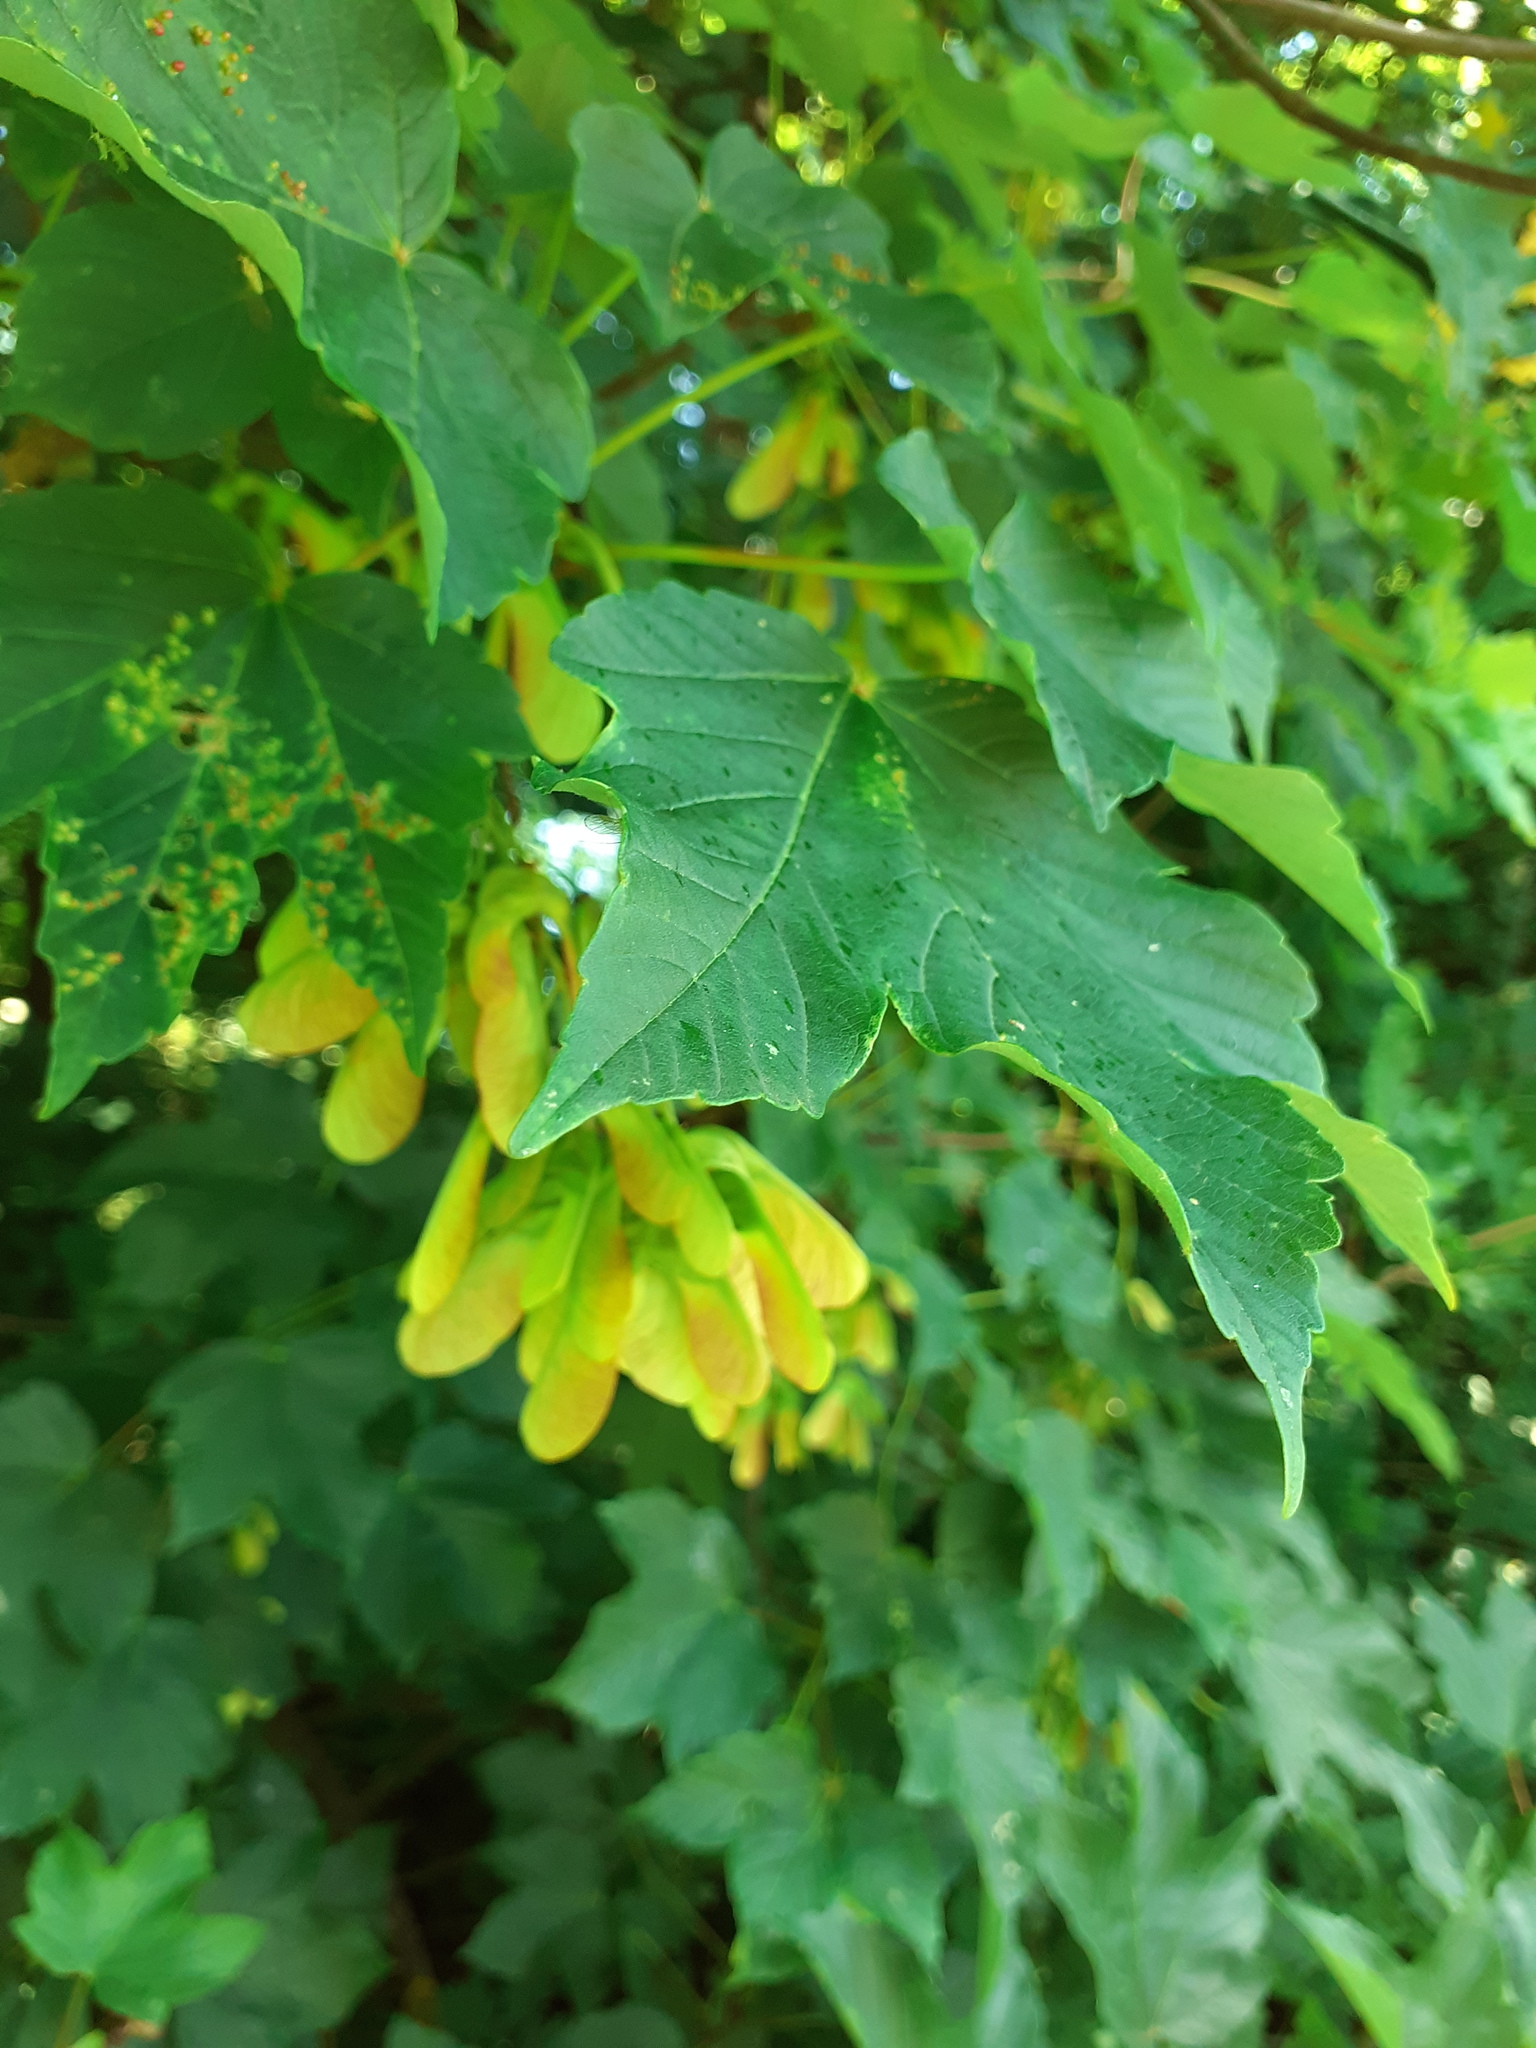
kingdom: Plantae
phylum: Tracheophyta
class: Magnoliopsida
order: Sapindales
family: Sapindaceae
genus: Acer
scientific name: Acer pseudoplatanus
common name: Sycamore
